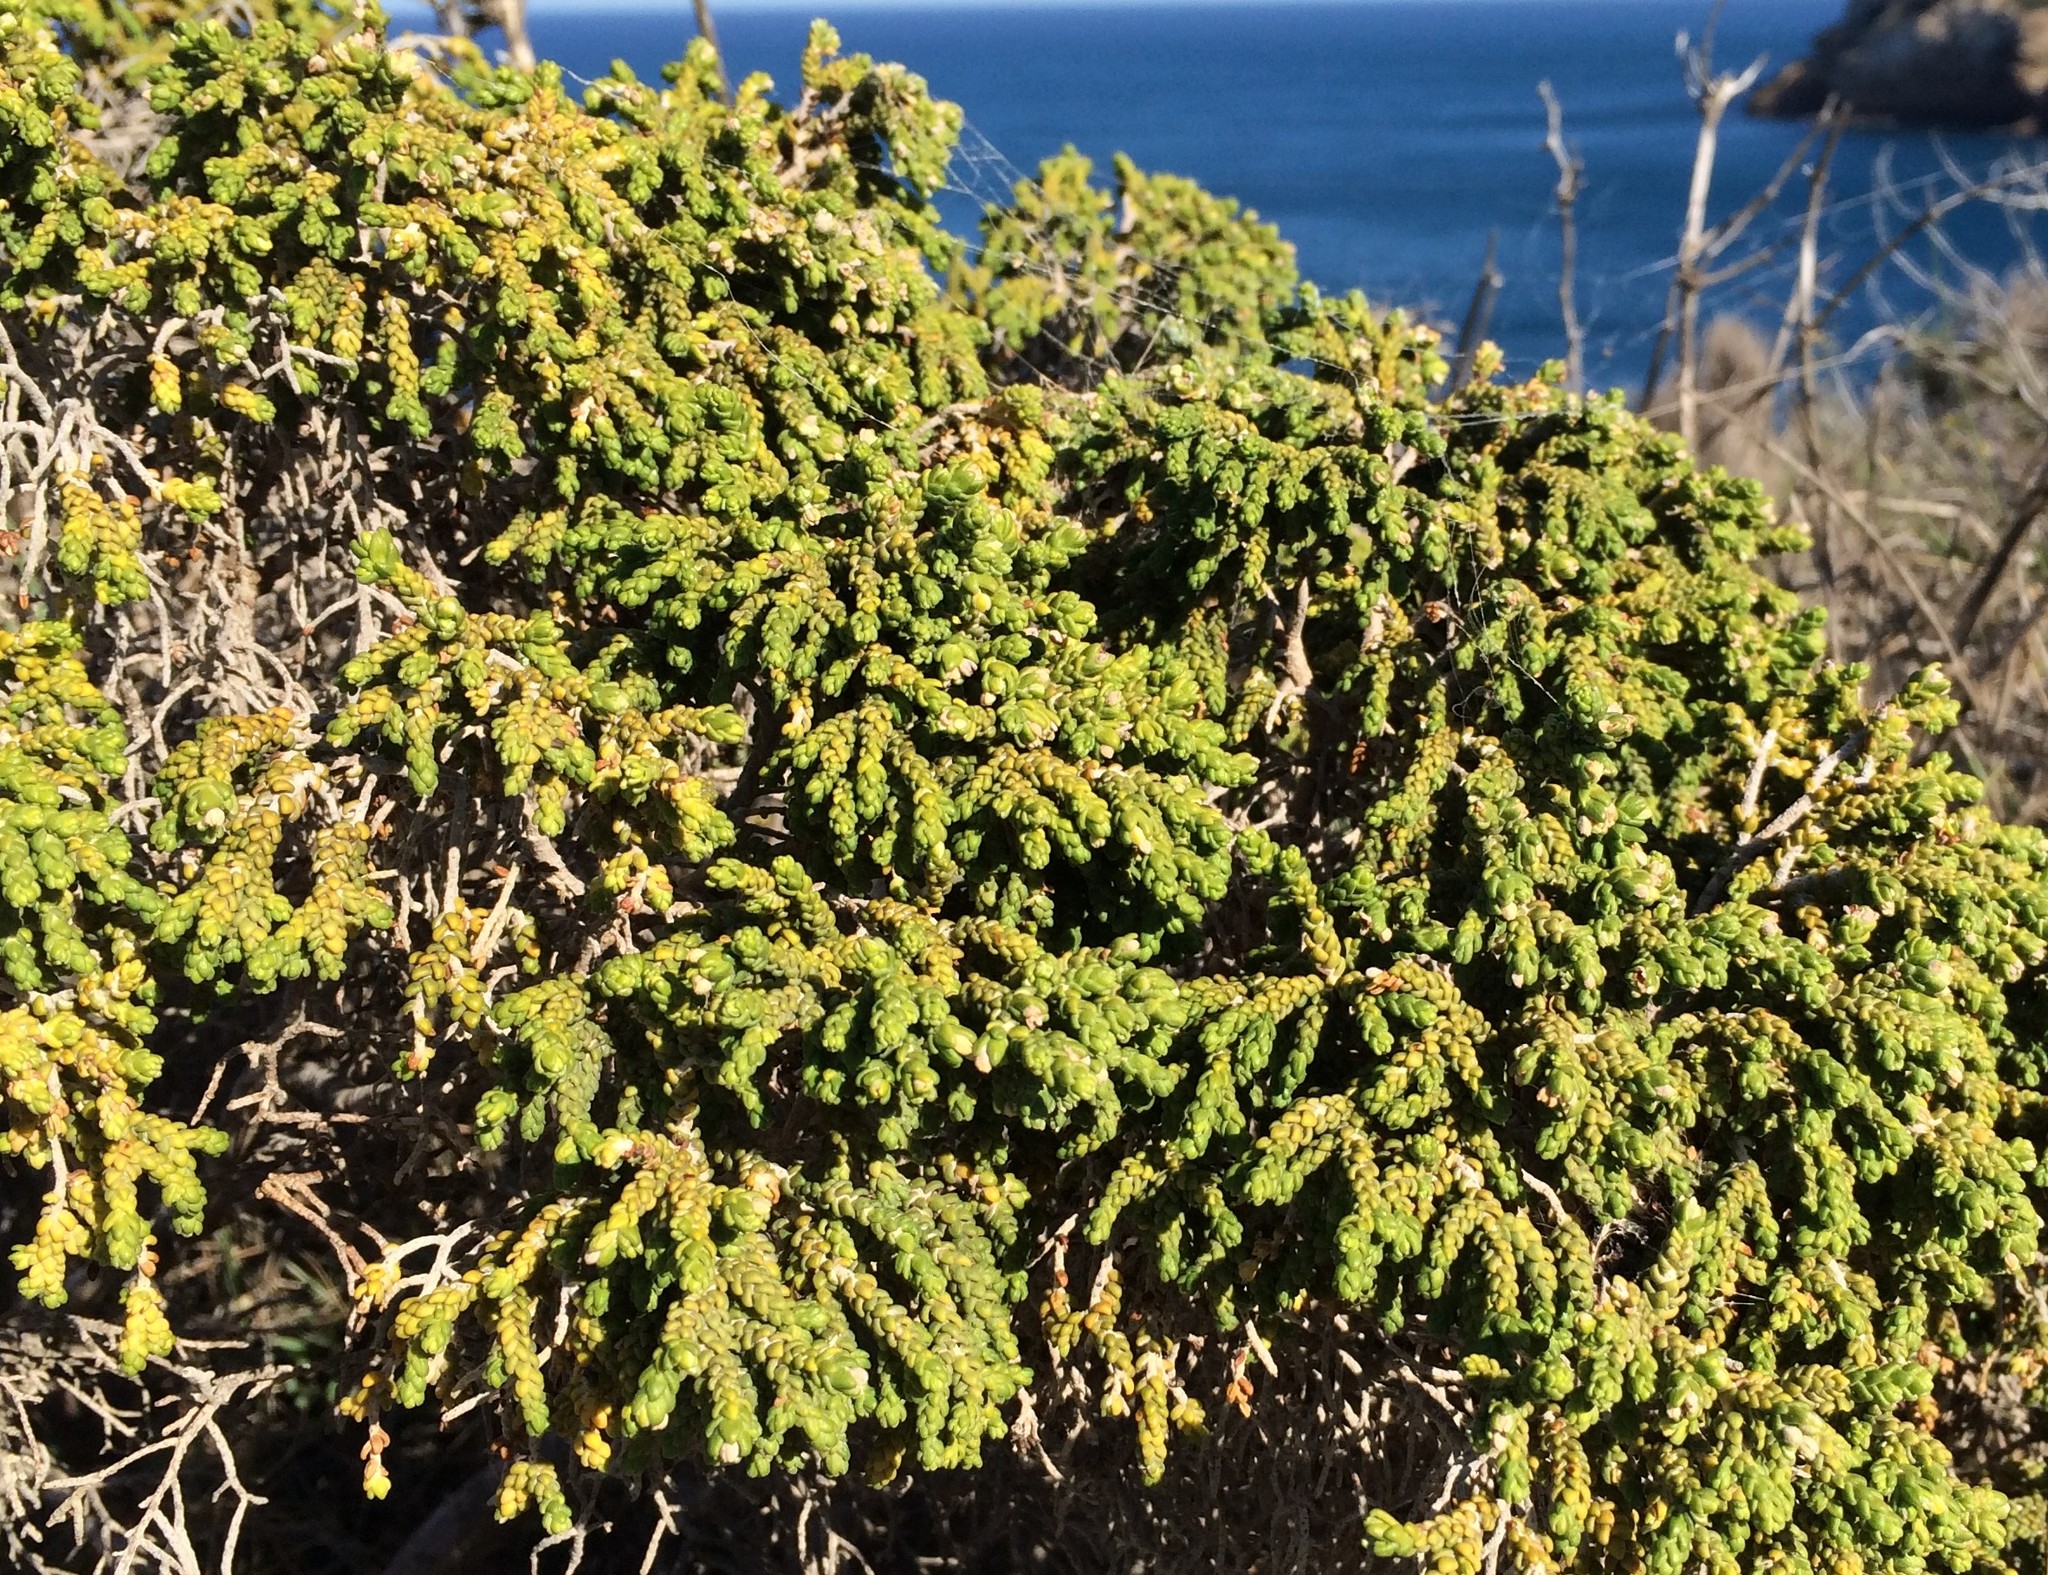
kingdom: Plantae
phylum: Tracheophyta
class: Magnoliopsida
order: Malvales
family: Thymelaeaceae
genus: Thymelaea
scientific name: Thymelaea hirsuta
